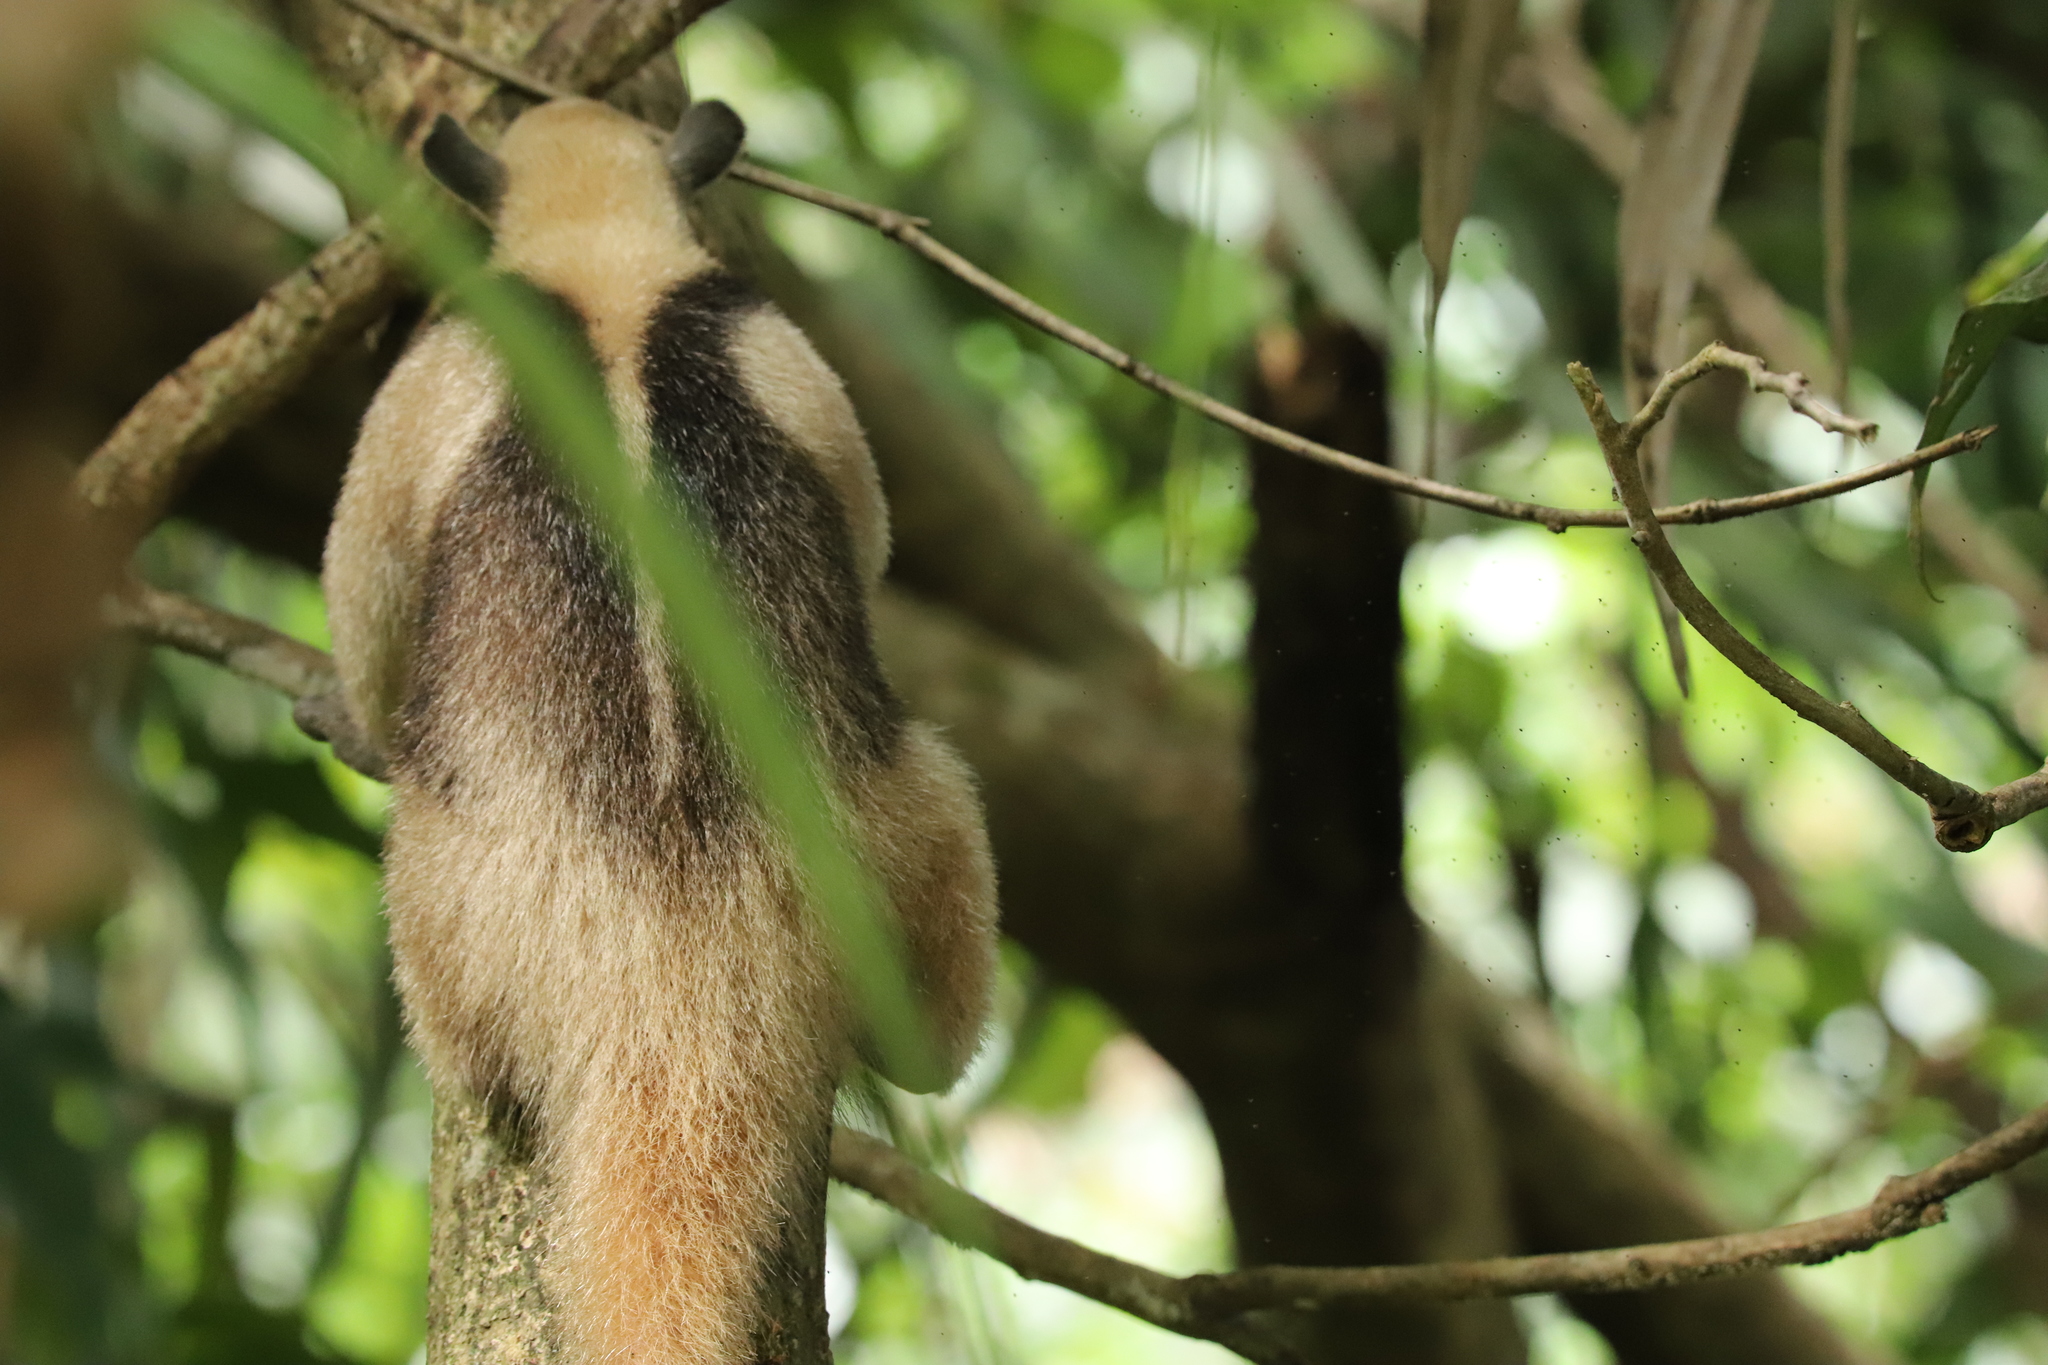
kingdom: Animalia
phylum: Chordata
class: Mammalia
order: Pilosa
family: Myrmecophagidae
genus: Tamandua
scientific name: Tamandua mexicana
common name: Northern tamandua
